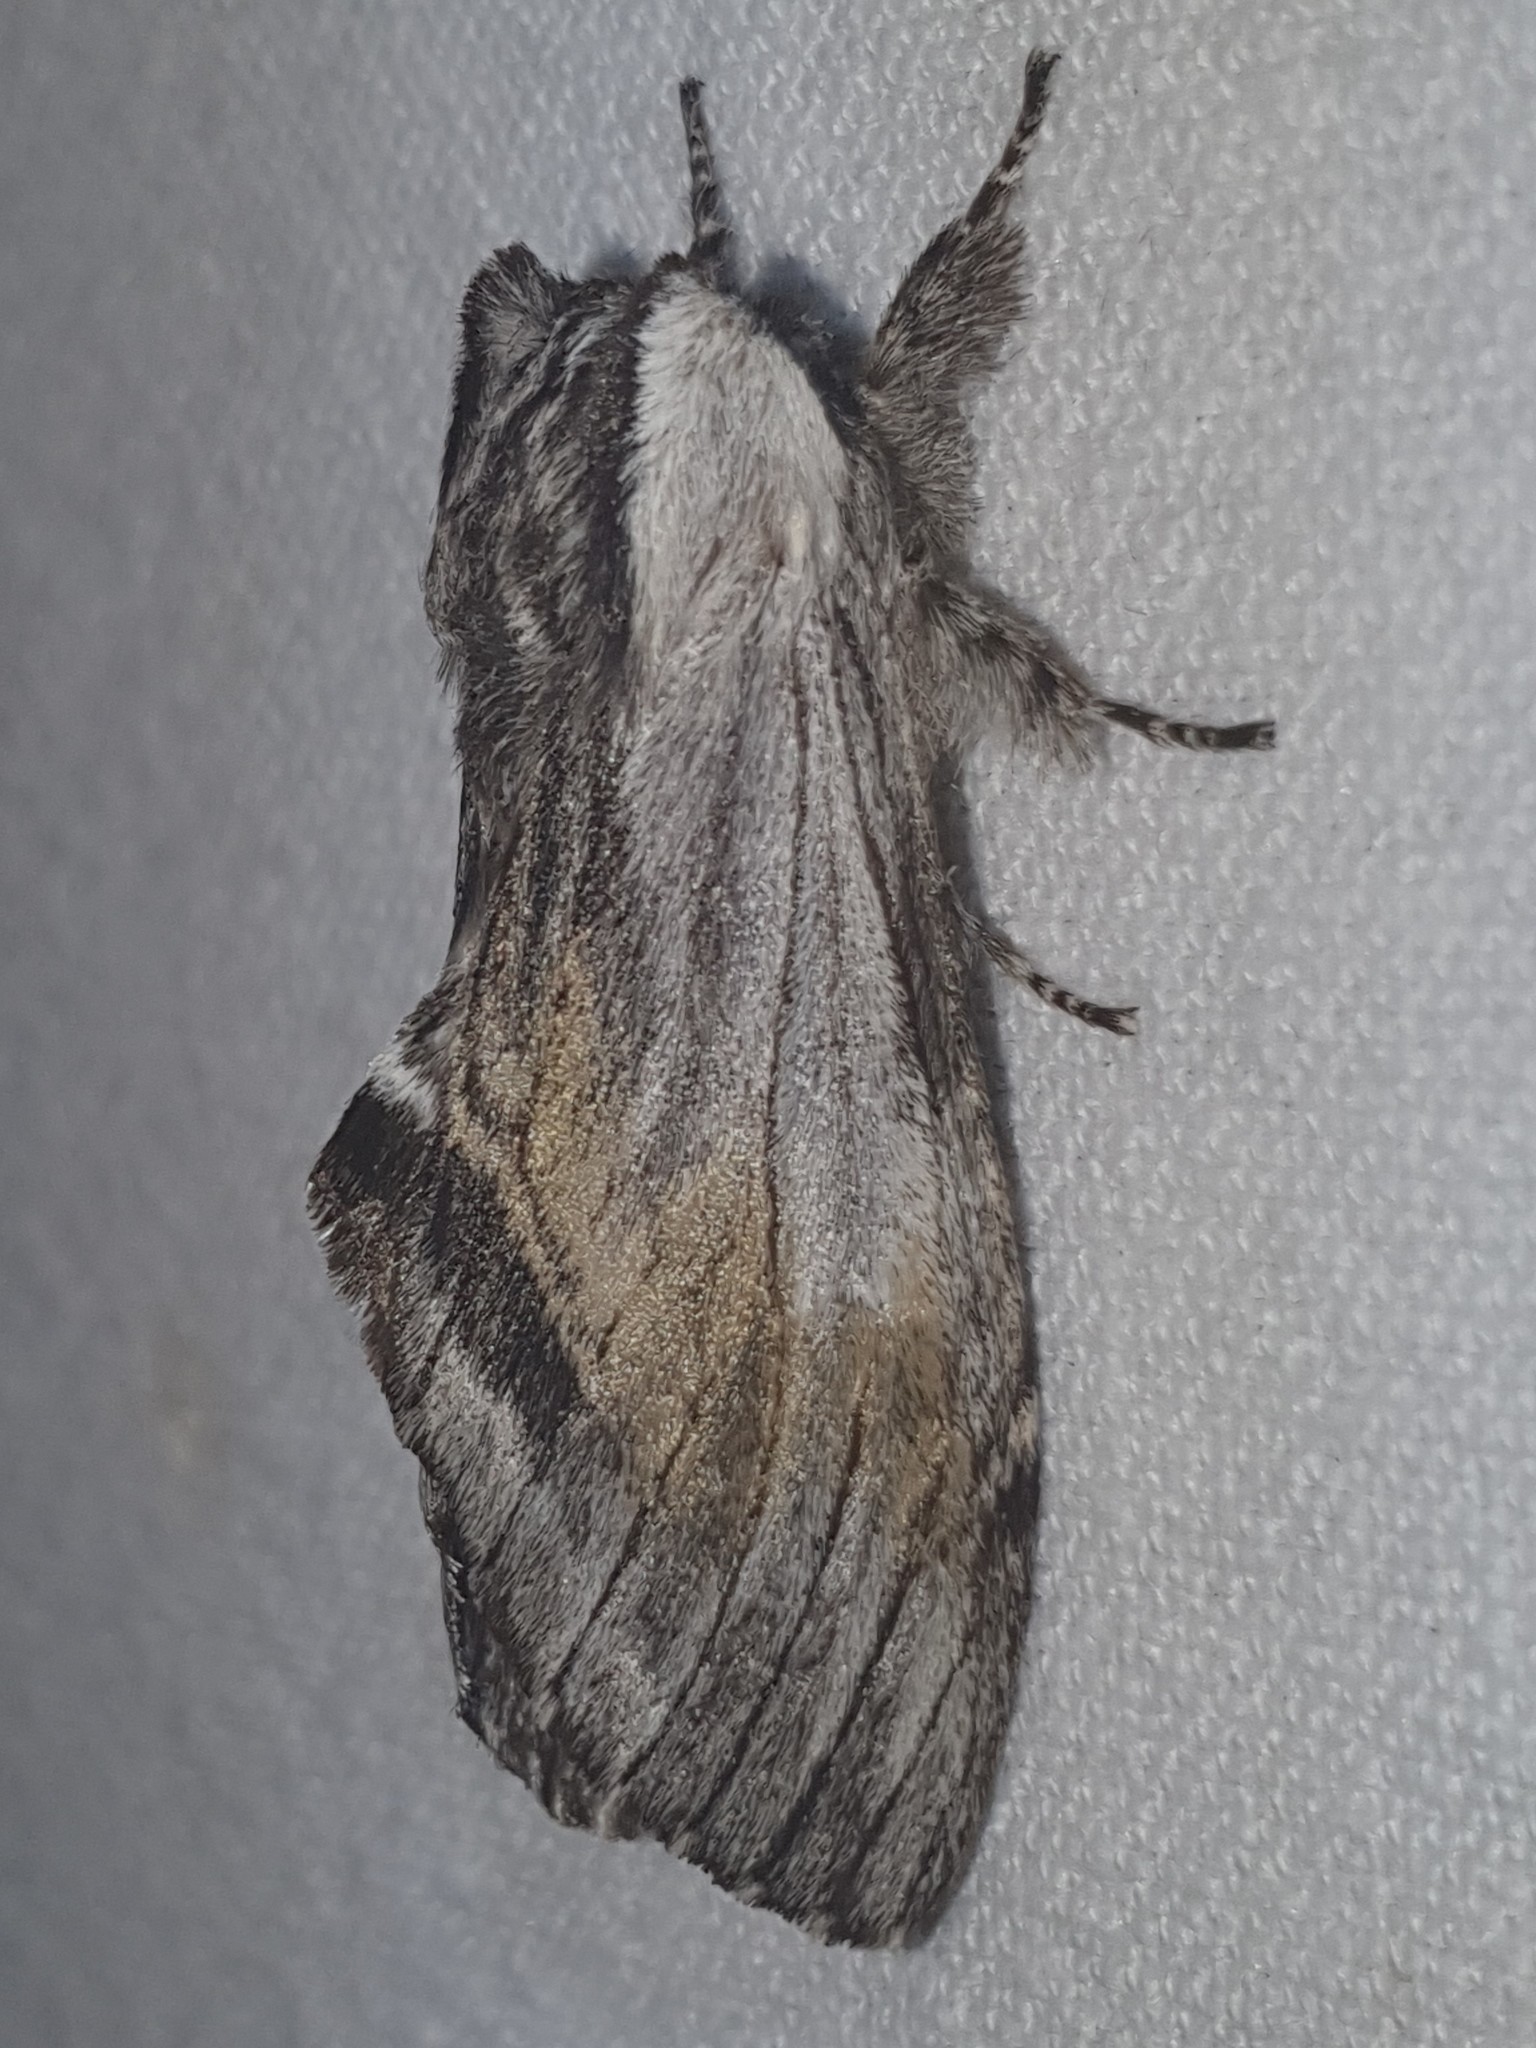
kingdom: Animalia
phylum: Arthropoda
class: Insecta
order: Lepidoptera
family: Notodontidae
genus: Harpyia
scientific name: Harpyia milhauseri
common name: Tawny prominent
